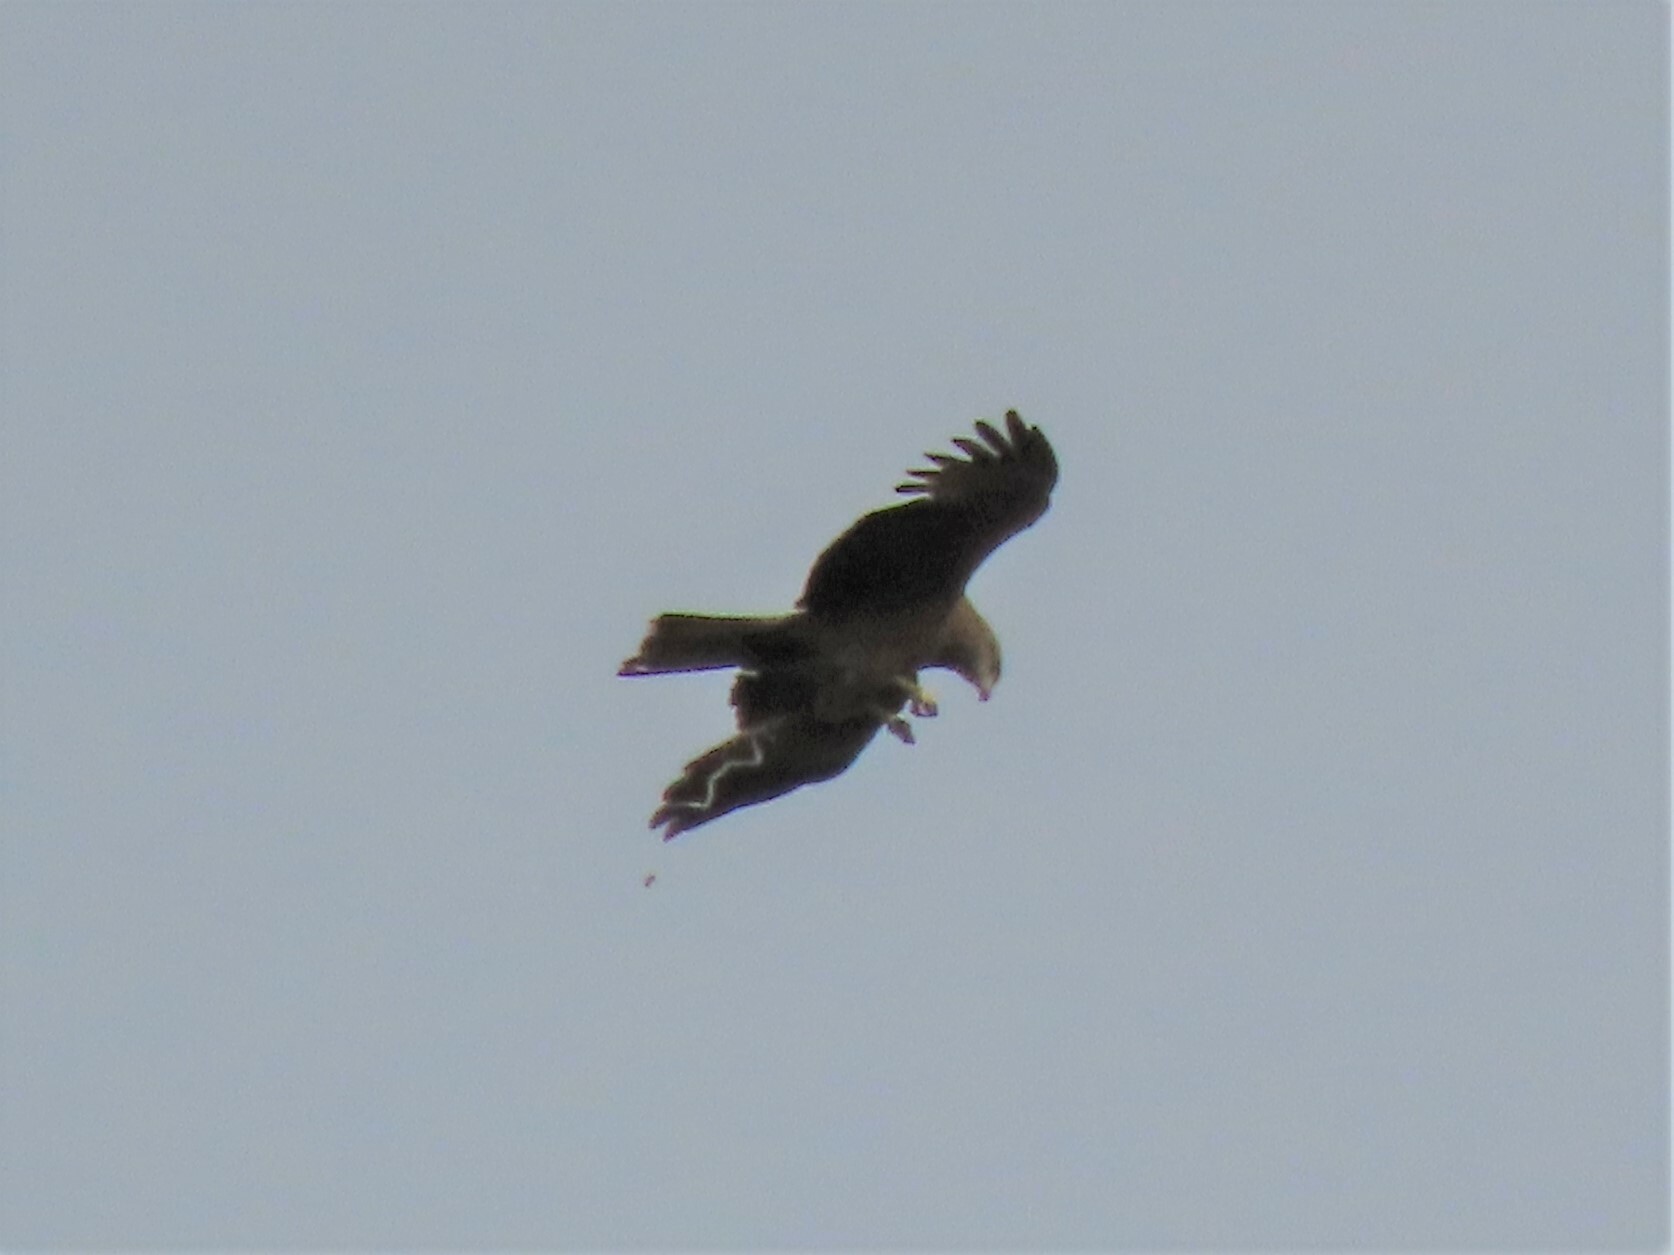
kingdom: Animalia
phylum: Chordata
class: Aves
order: Accipitriformes
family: Accipitridae
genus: Milvus
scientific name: Milvus migrans
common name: Black kite
